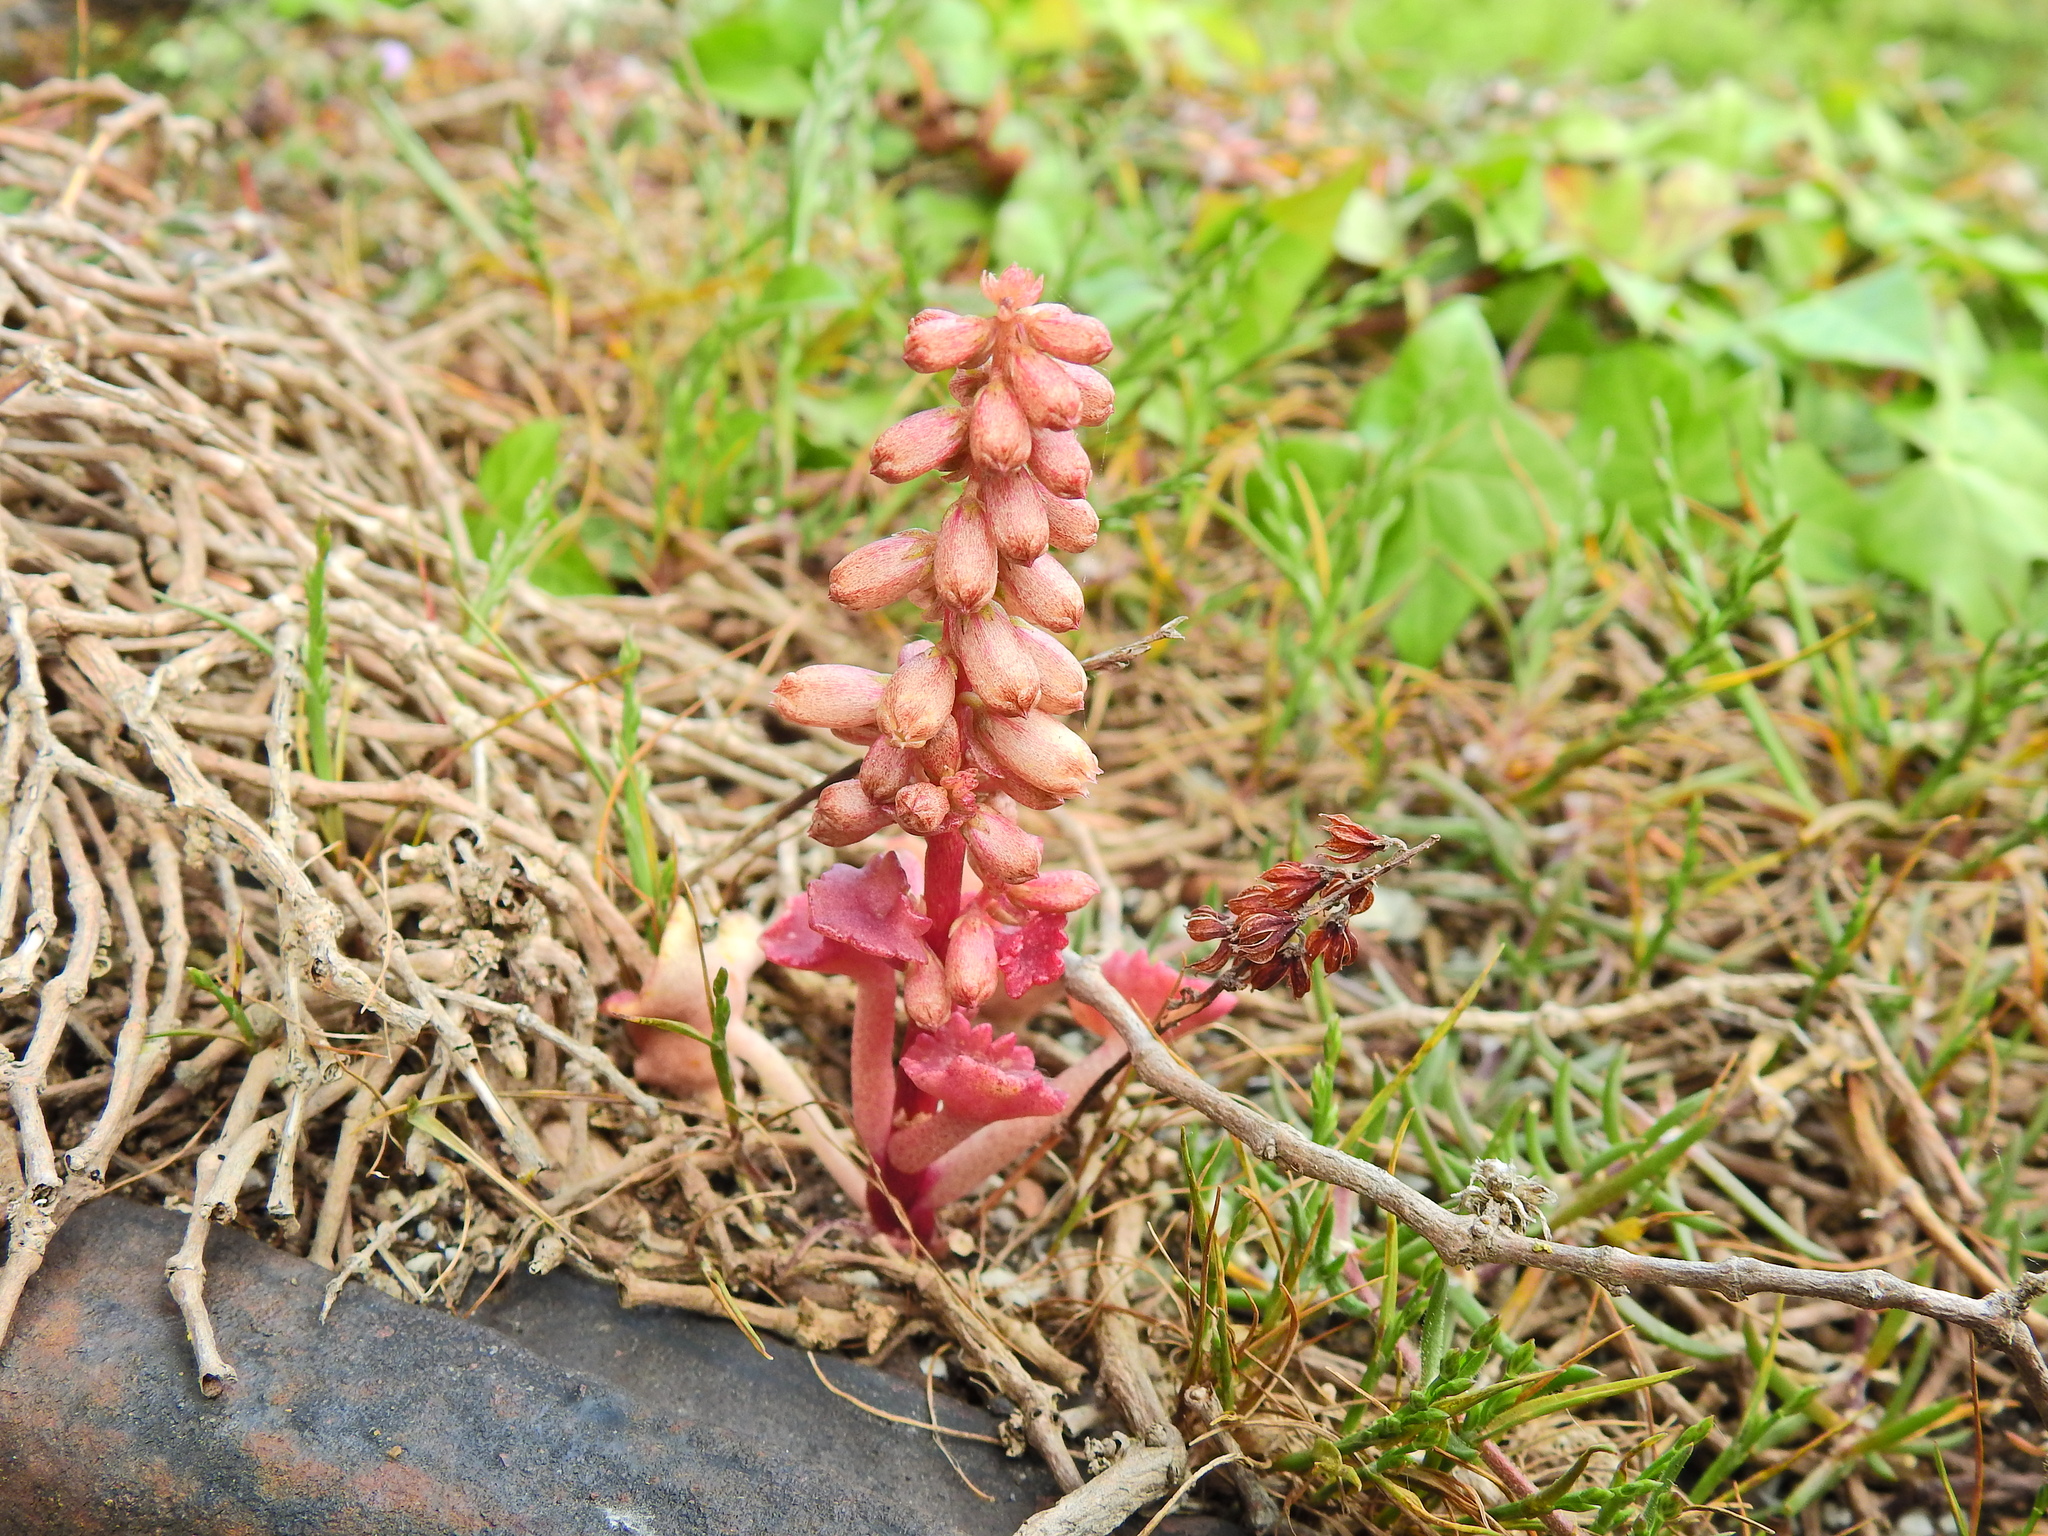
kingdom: Plantae
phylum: Tracheophyta
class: Magnoliopsida
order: Saxifragales
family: Crassulaceae
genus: Umbilicus
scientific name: Umbilicus rupestris
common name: Navelwort
